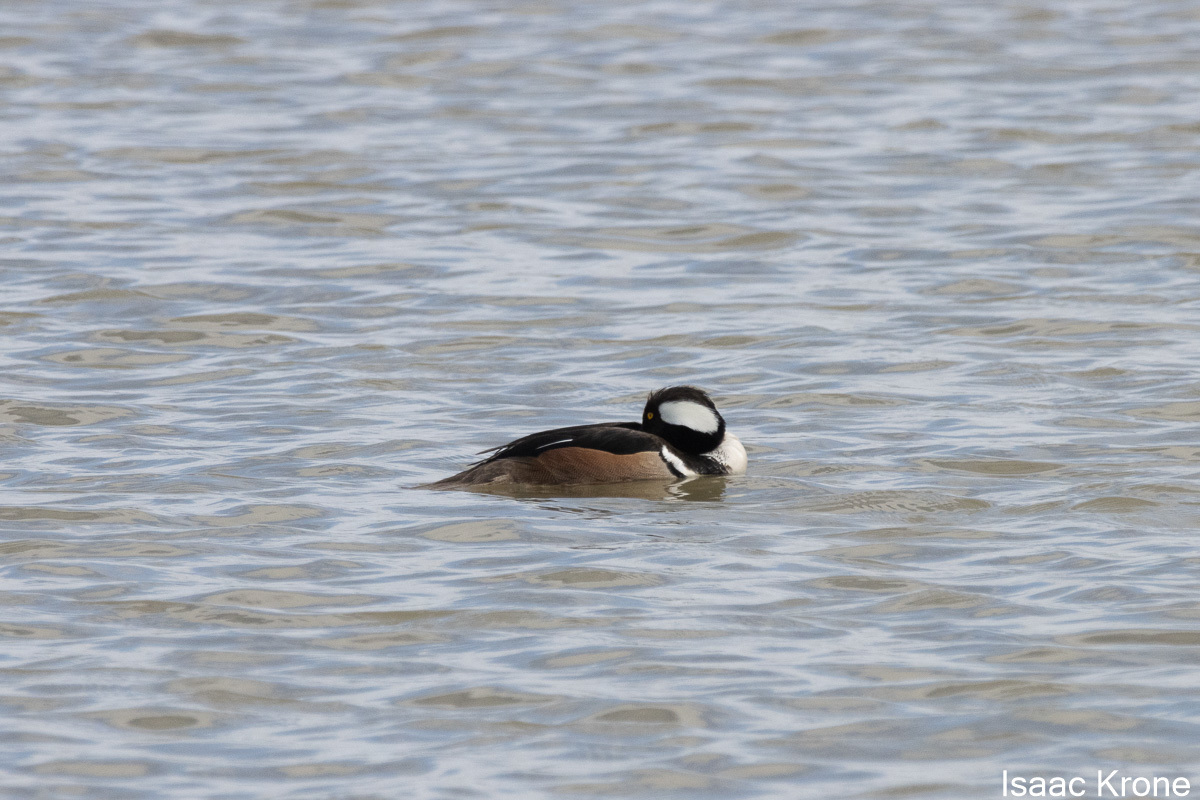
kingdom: Animalia
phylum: Chordata
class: Aves
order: Anseriformes
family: Anatidae
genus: Lophodytes
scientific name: Lophodytes cucullatus
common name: Hooded merganser
